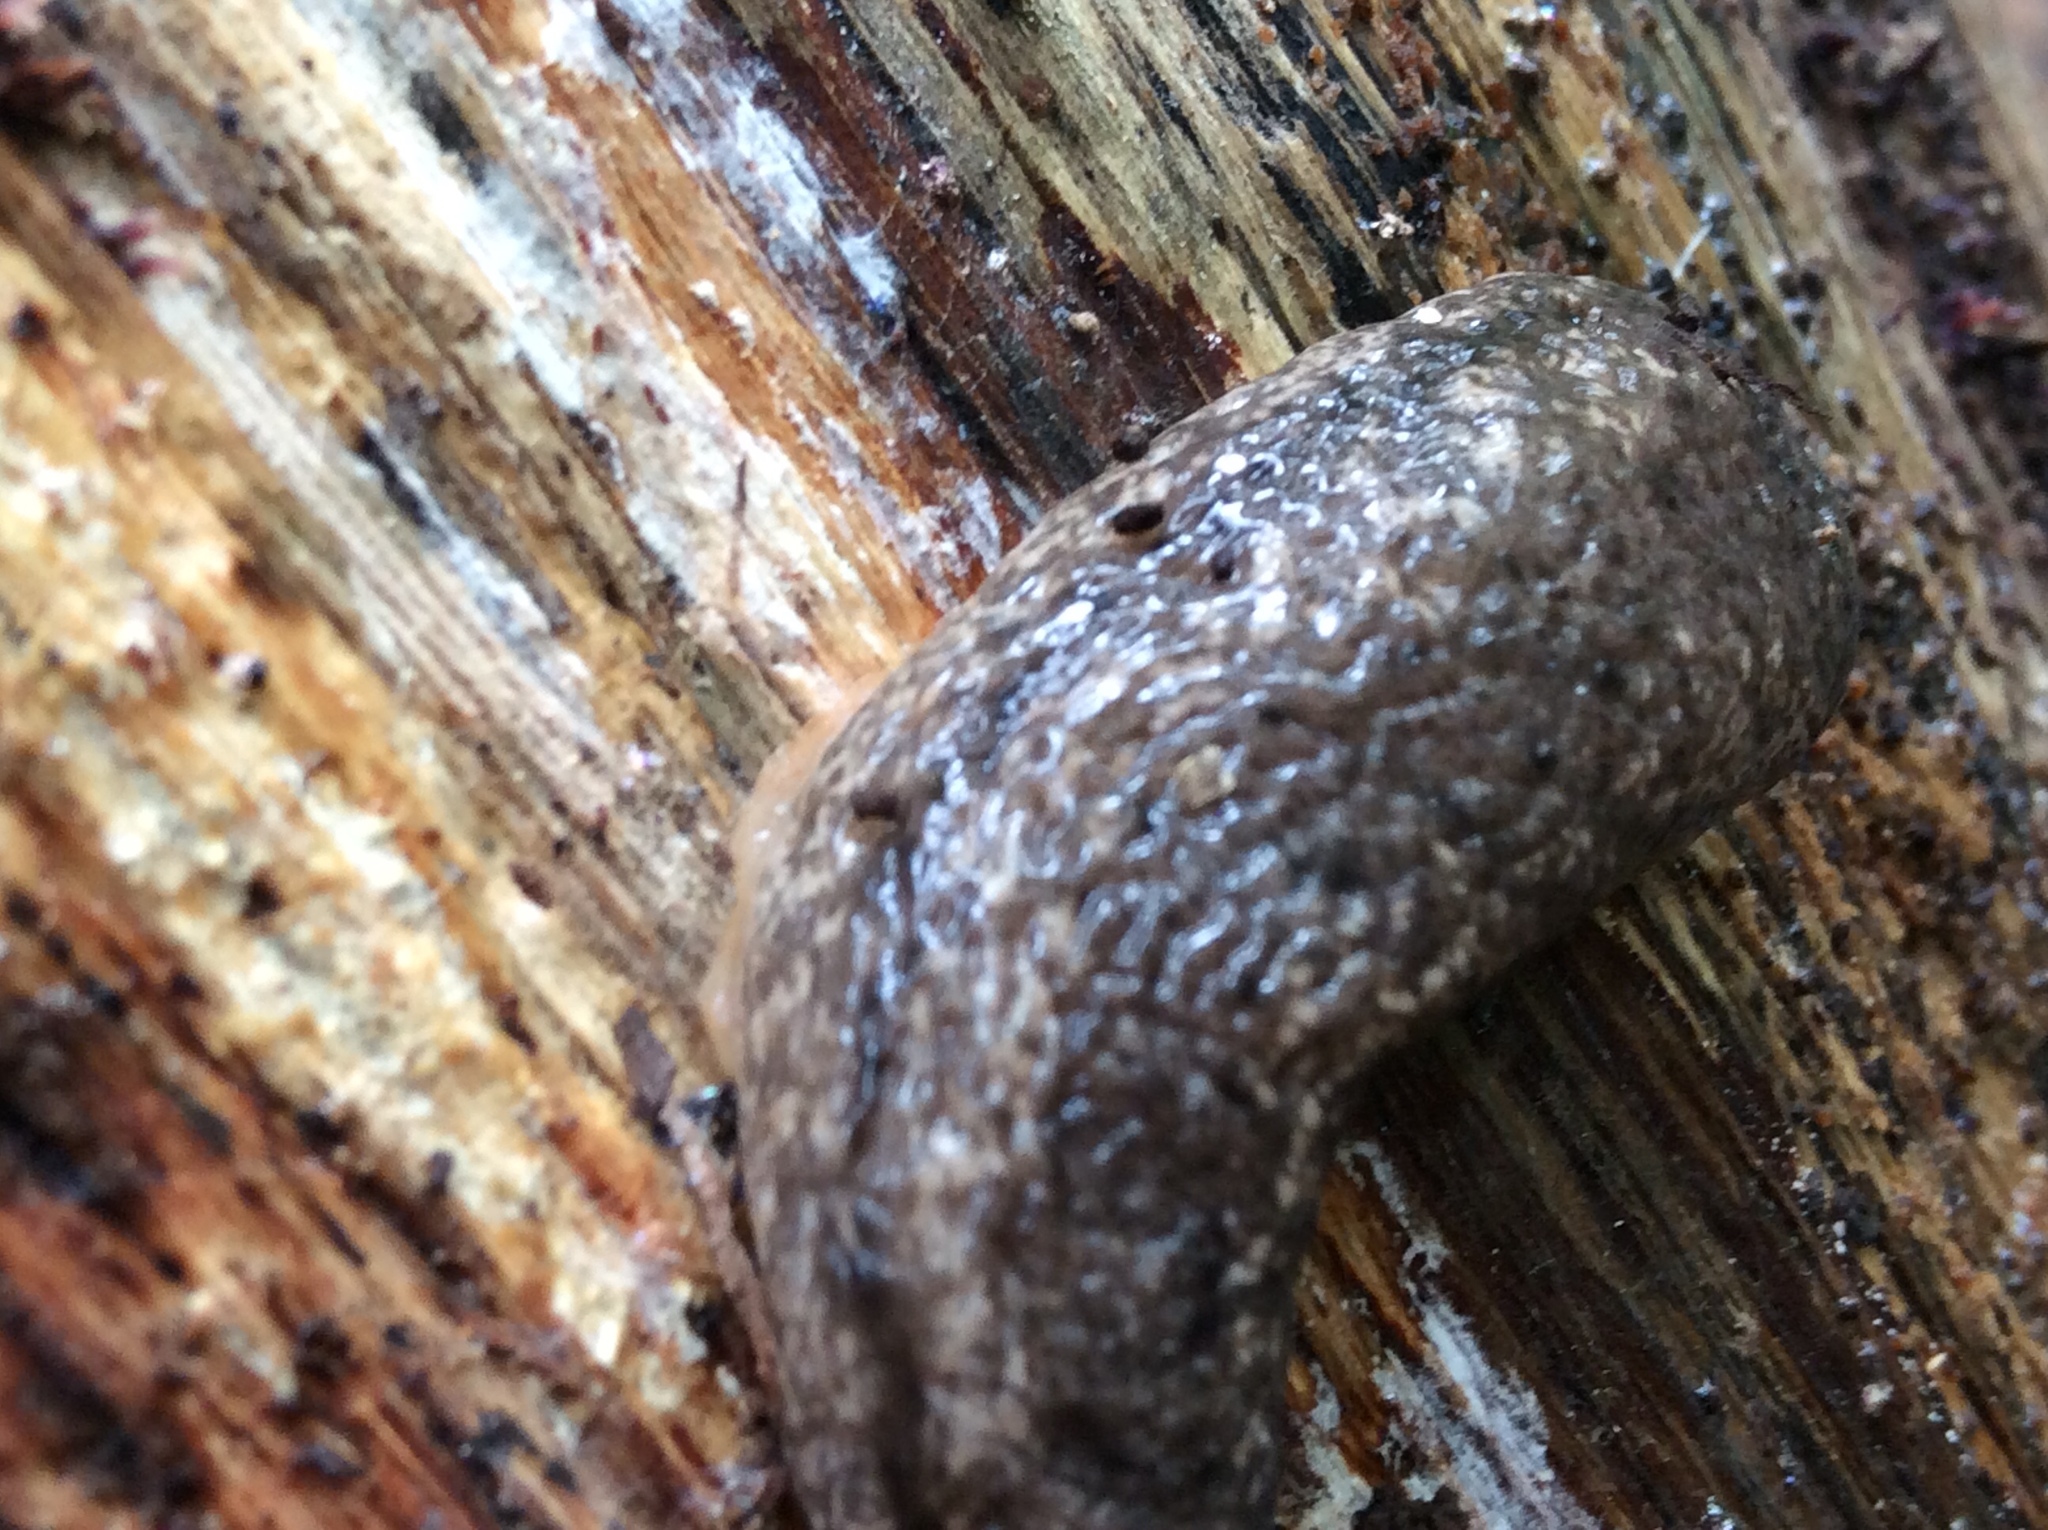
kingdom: Animalia
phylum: Mollusca
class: Gastropoda
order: Stylommatophora
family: Philomycidae
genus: Philomycus
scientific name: Philomycus togatus
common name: Toga mantleslug
